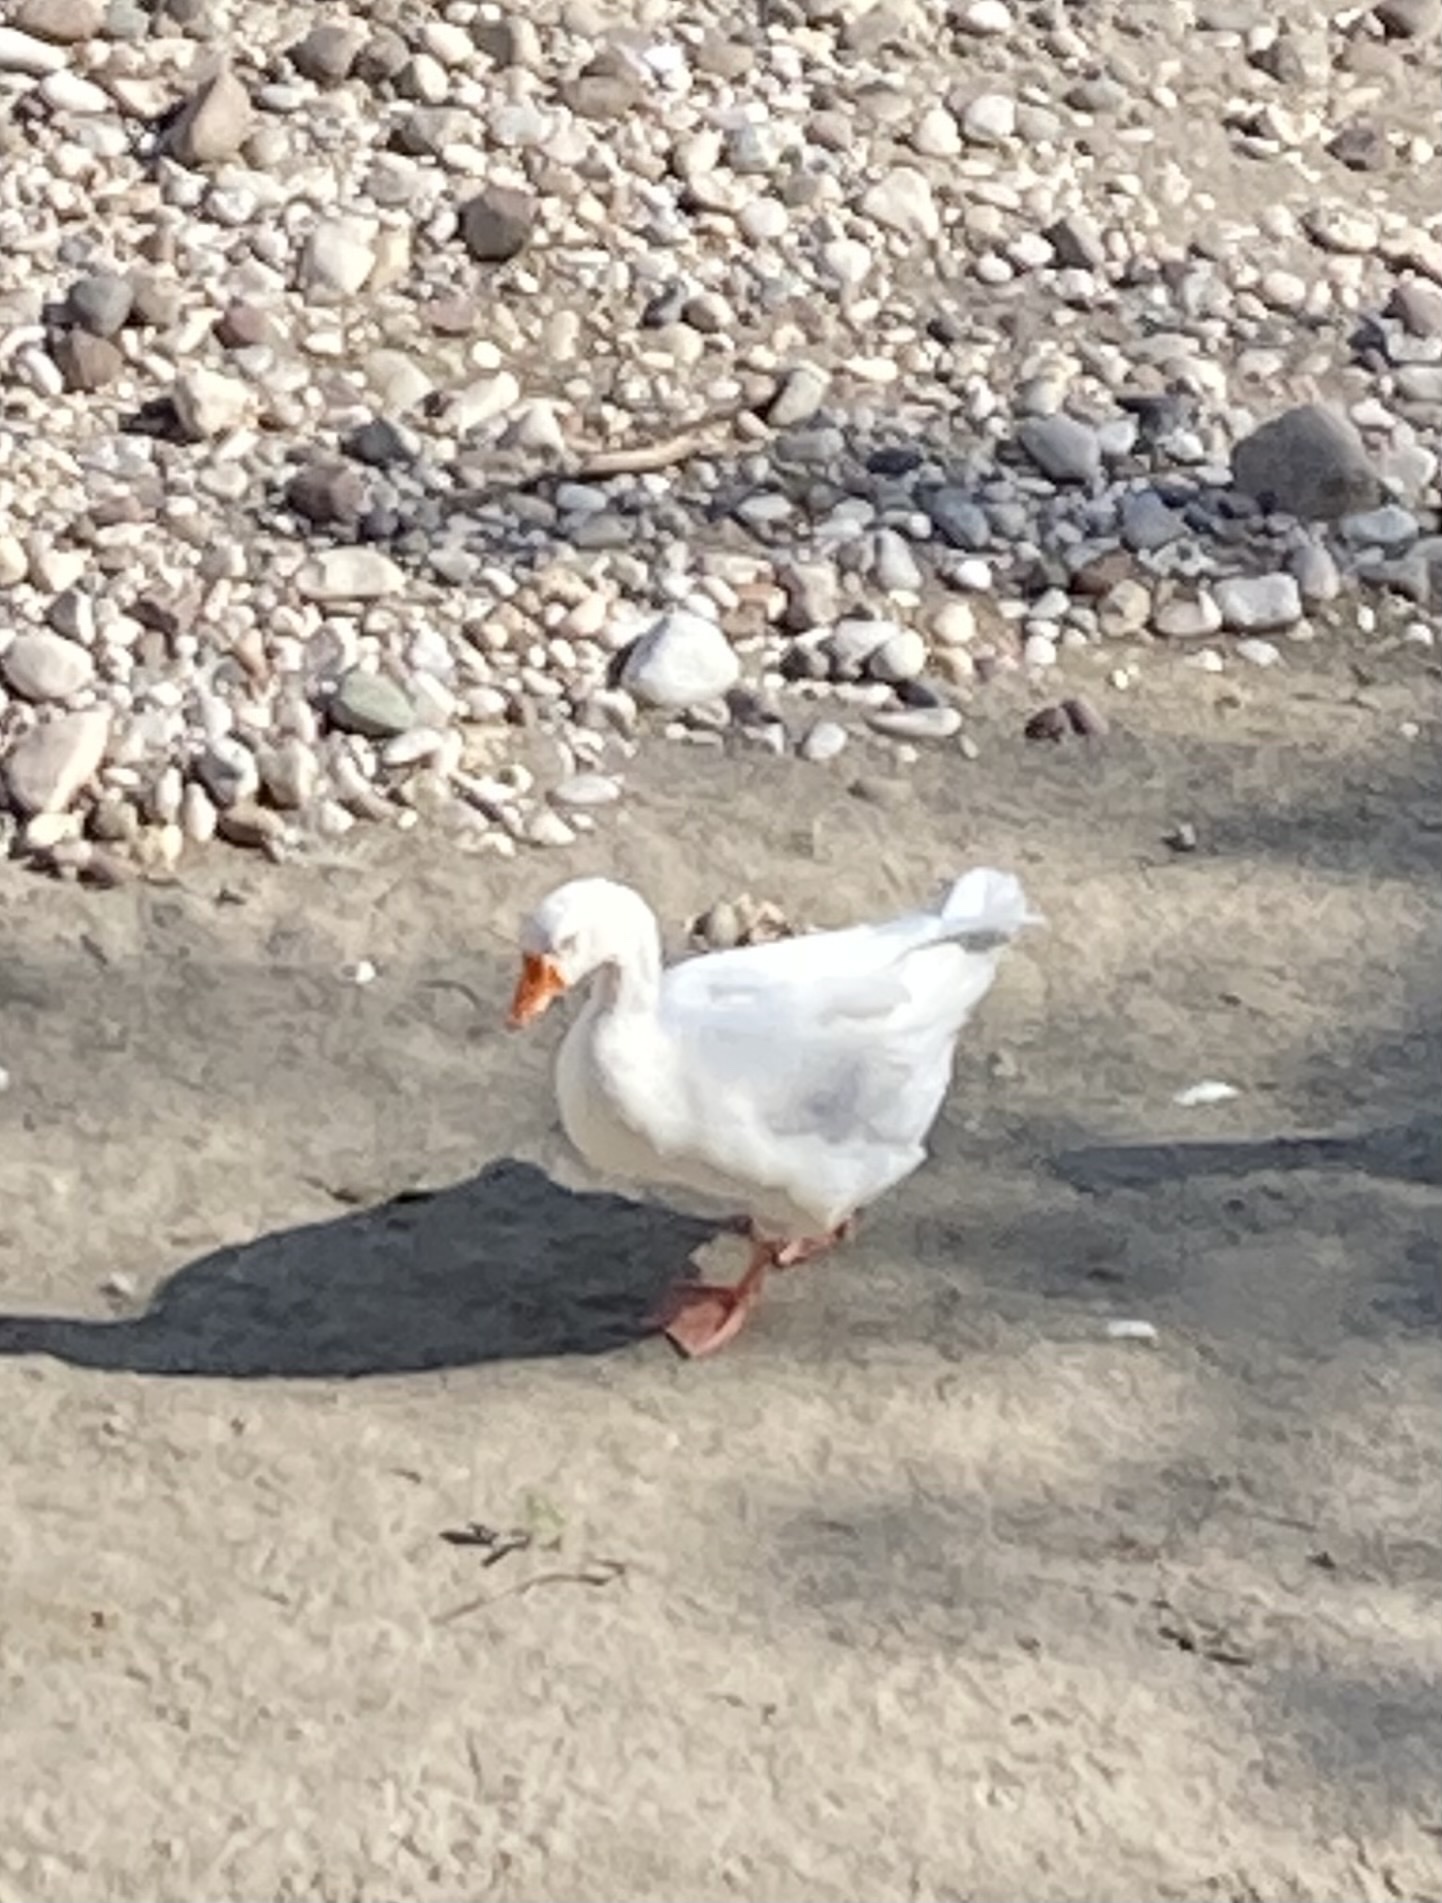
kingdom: Animalia
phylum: Chordata
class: Aves
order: Anseriformes
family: Anatidae
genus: Anser
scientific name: Anser anser
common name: Greylag goose
